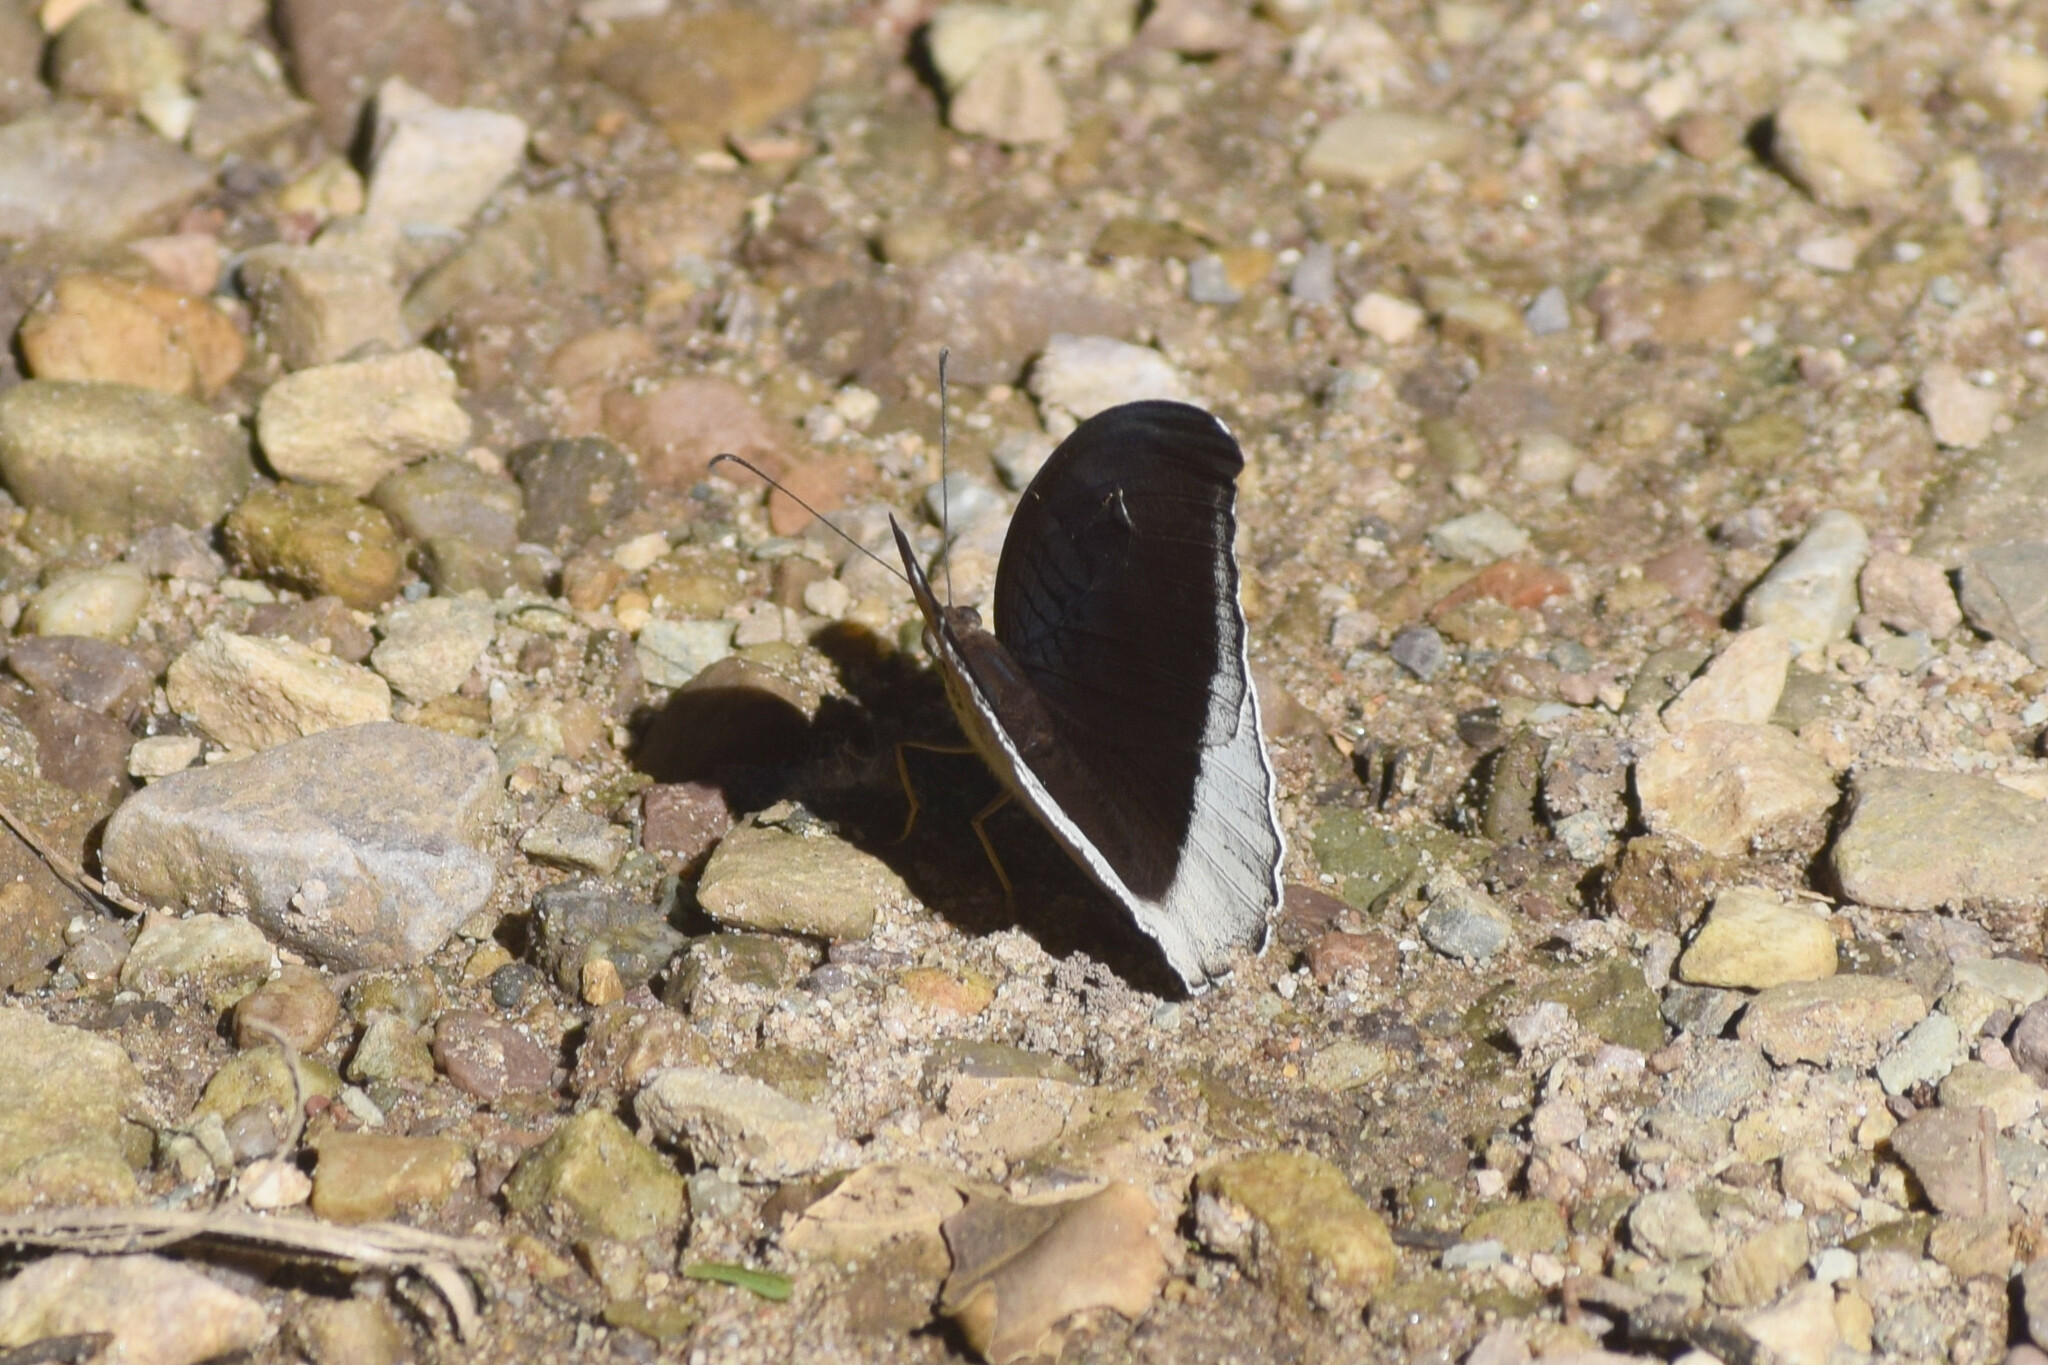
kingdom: Animalia
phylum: Arthropoda
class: Insecta
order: Lepidoptera
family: Nymphalidae
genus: Tanaecia
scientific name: Tanaecia lepidea
